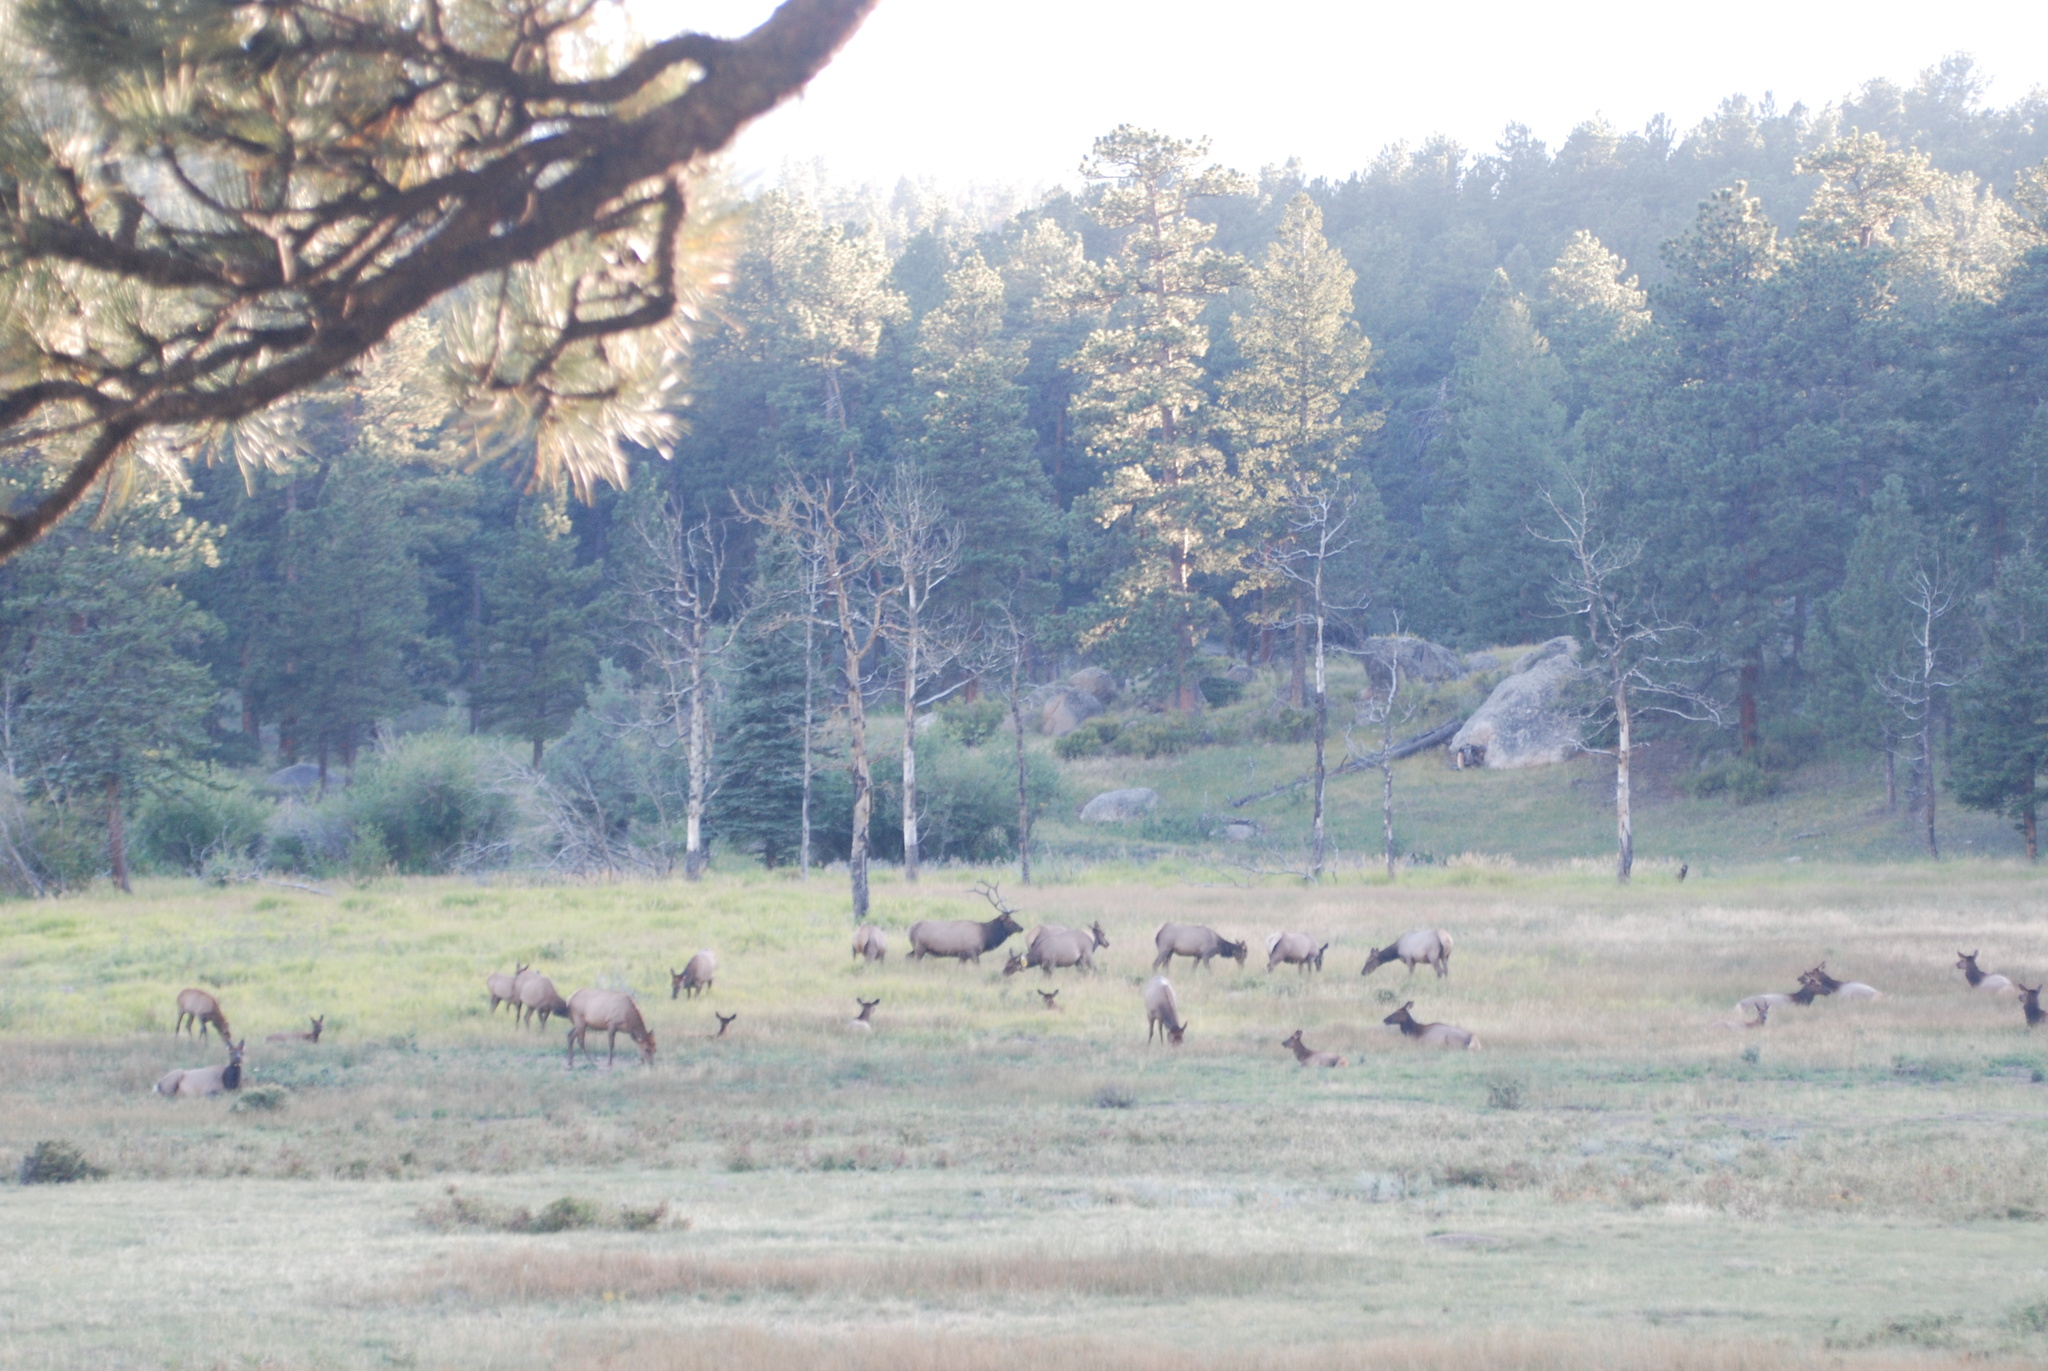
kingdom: Animalia
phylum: Chordata
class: Mammalia
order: Artiodactyla
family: Cervidae
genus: Cervus
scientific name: Cervus elaphus
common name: Red deer
